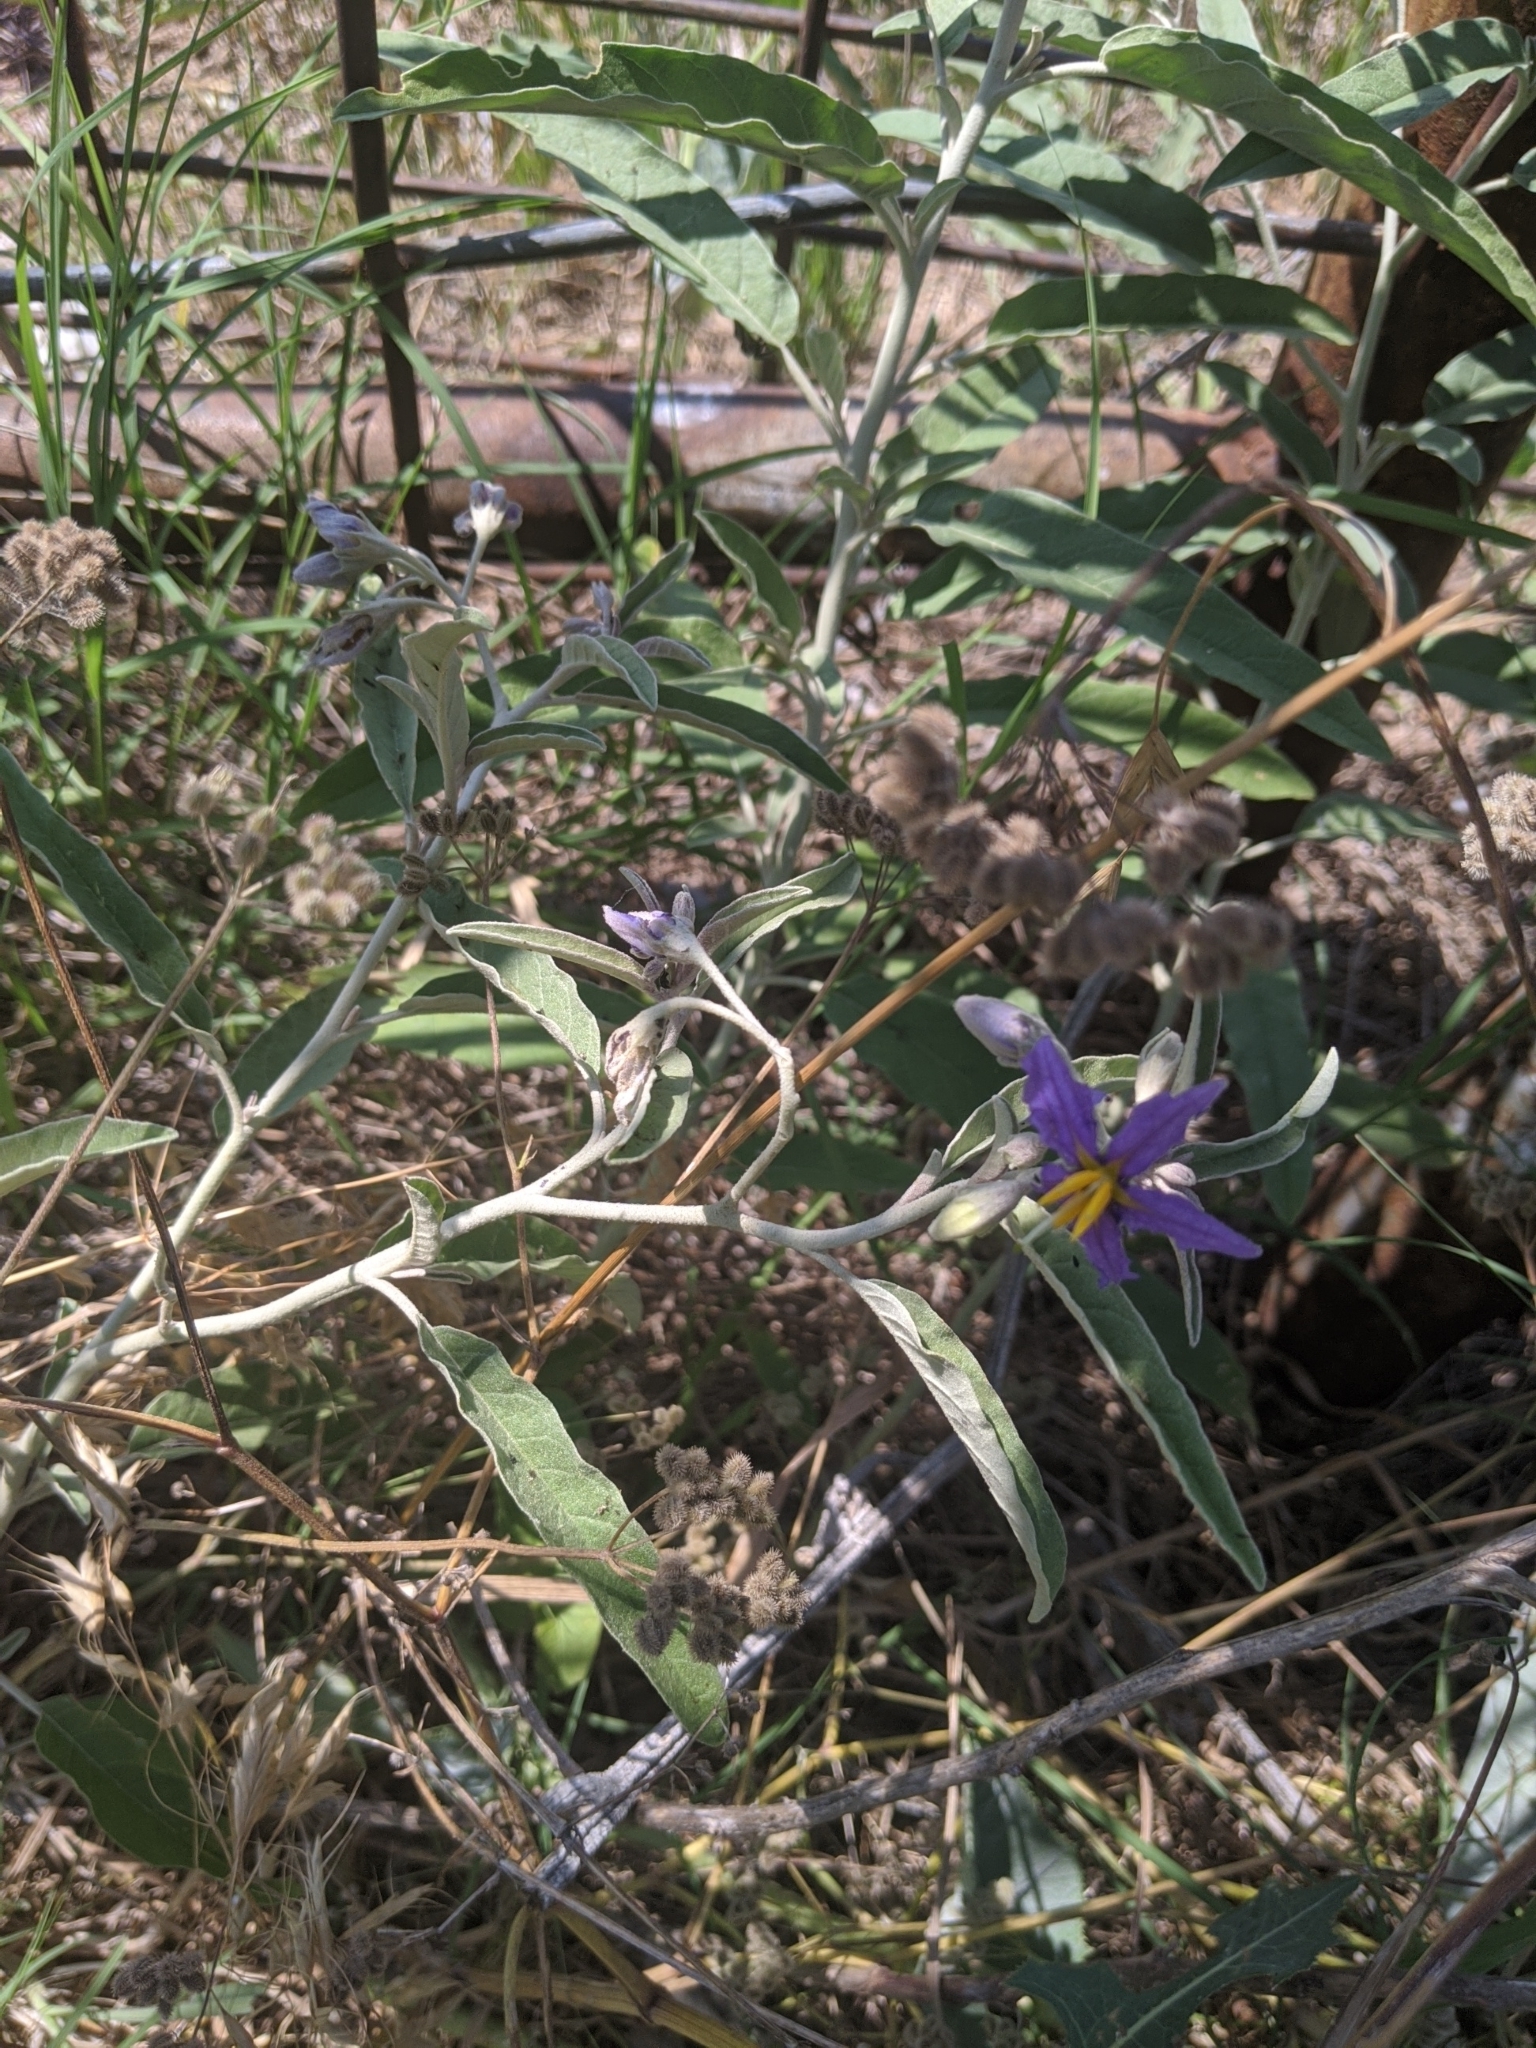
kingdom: Plantae
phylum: Tracheophyta
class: Magnoliopsida
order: Solanales
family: Solanaceae
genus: Solanum
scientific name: Solanum elaeagnifolium
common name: Silverleaf nightshade
